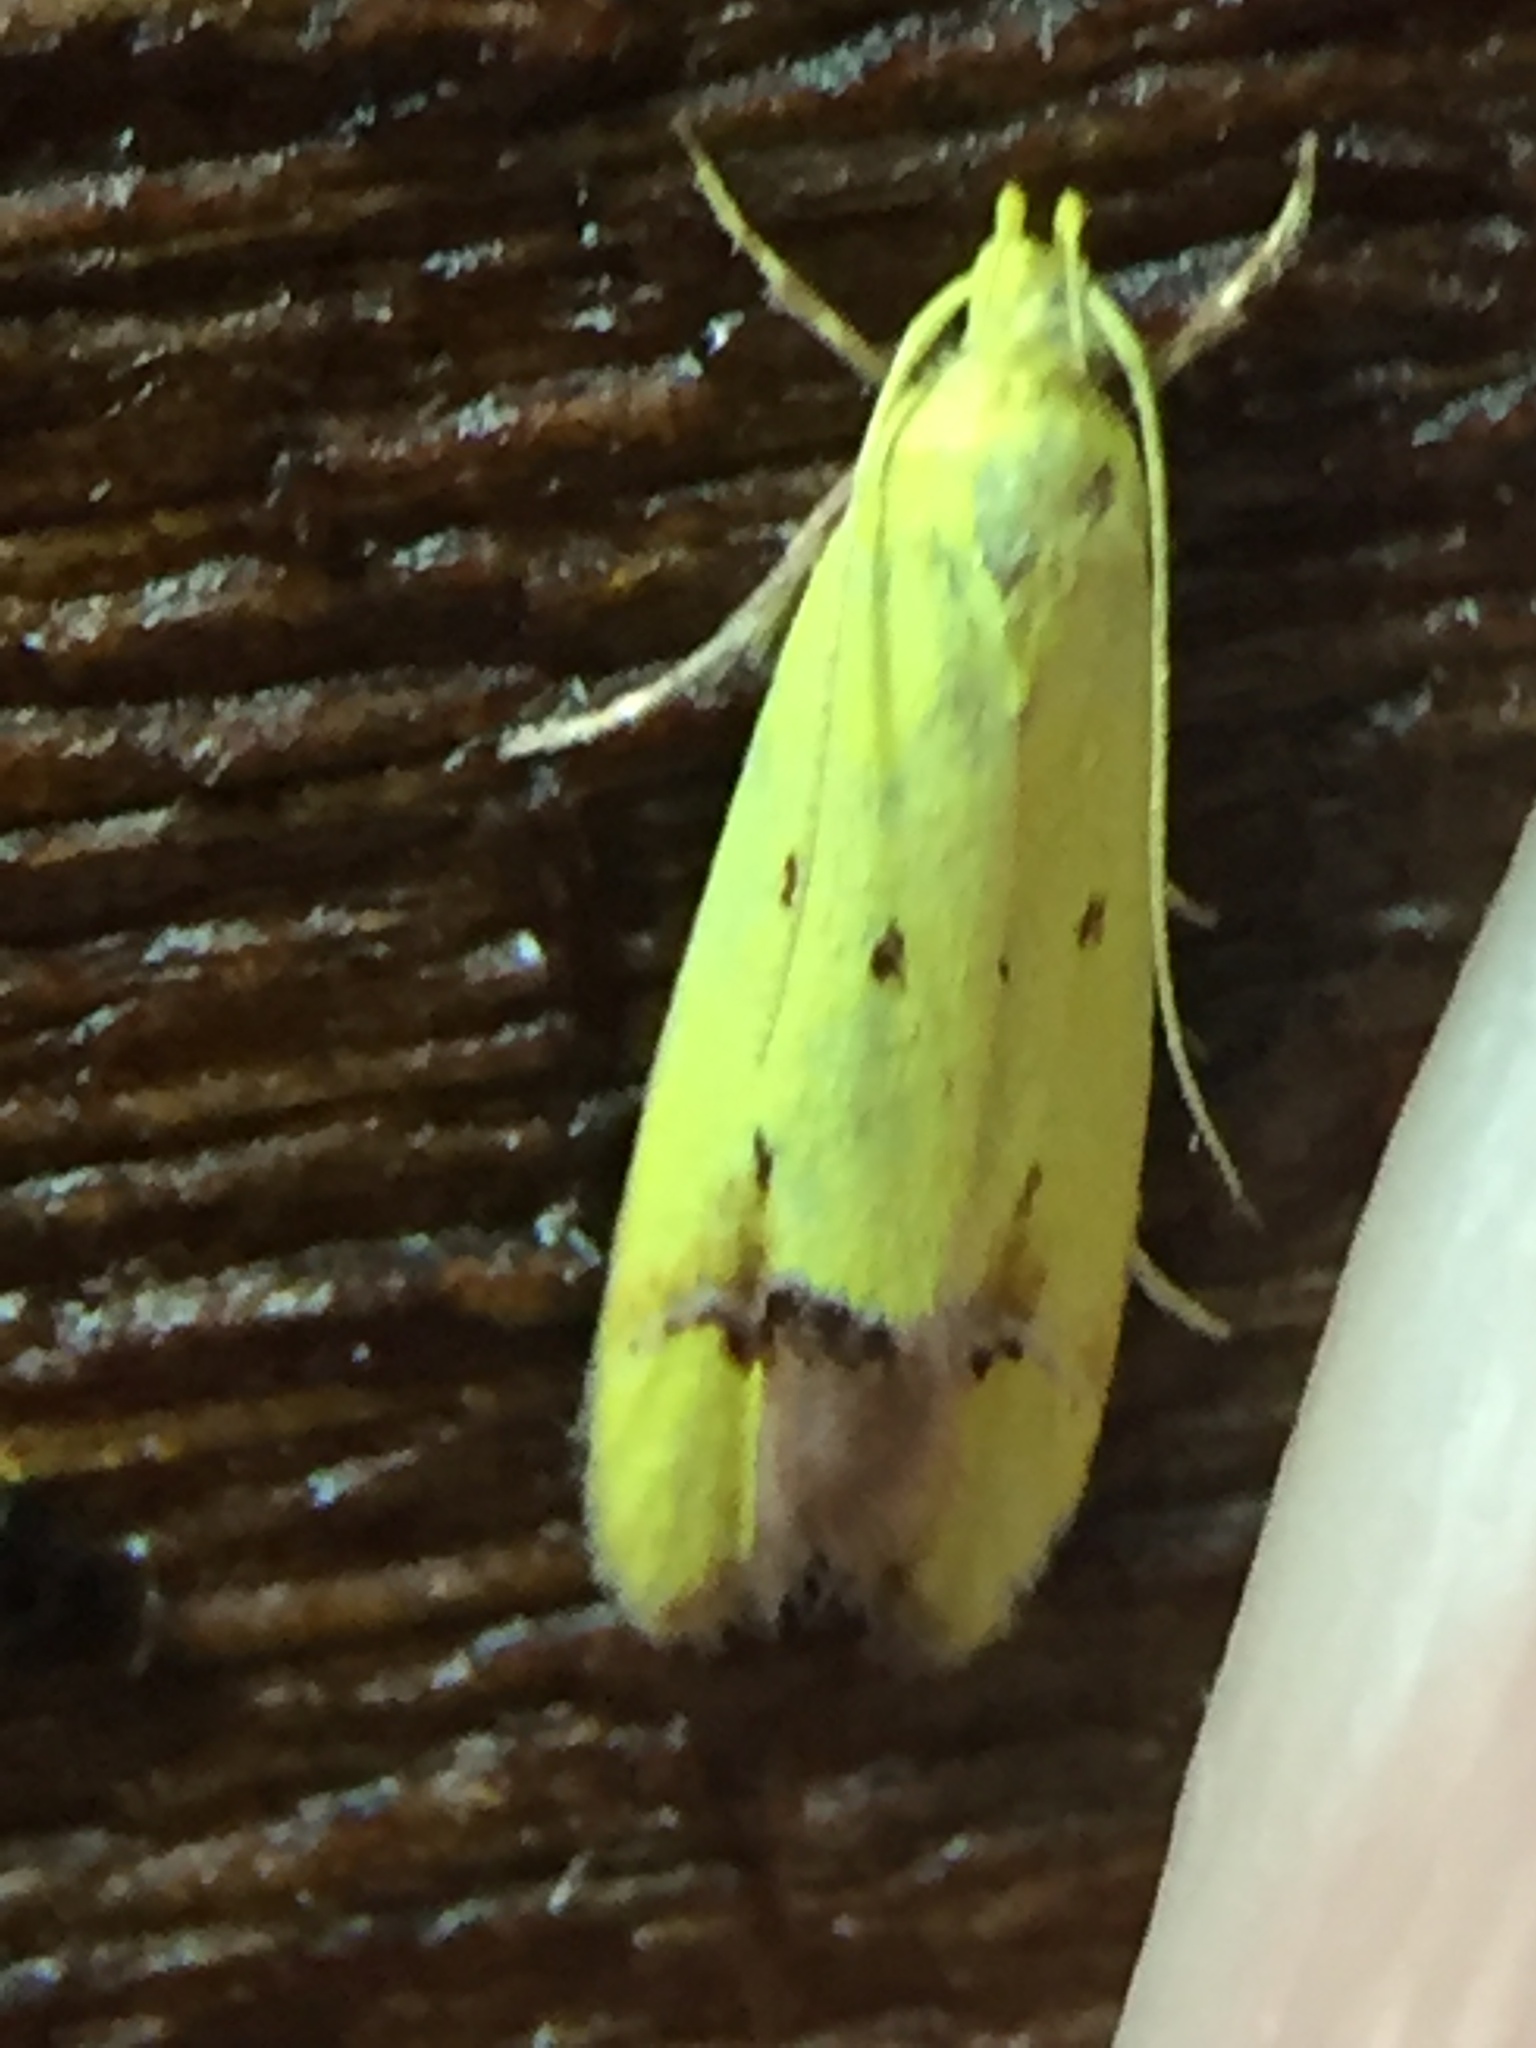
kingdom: Animalia
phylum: Arthropoda
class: Insecta
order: Lepidoptera
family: Oecophoridae
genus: Gymnobathra
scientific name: Gymnobathra flavidella
